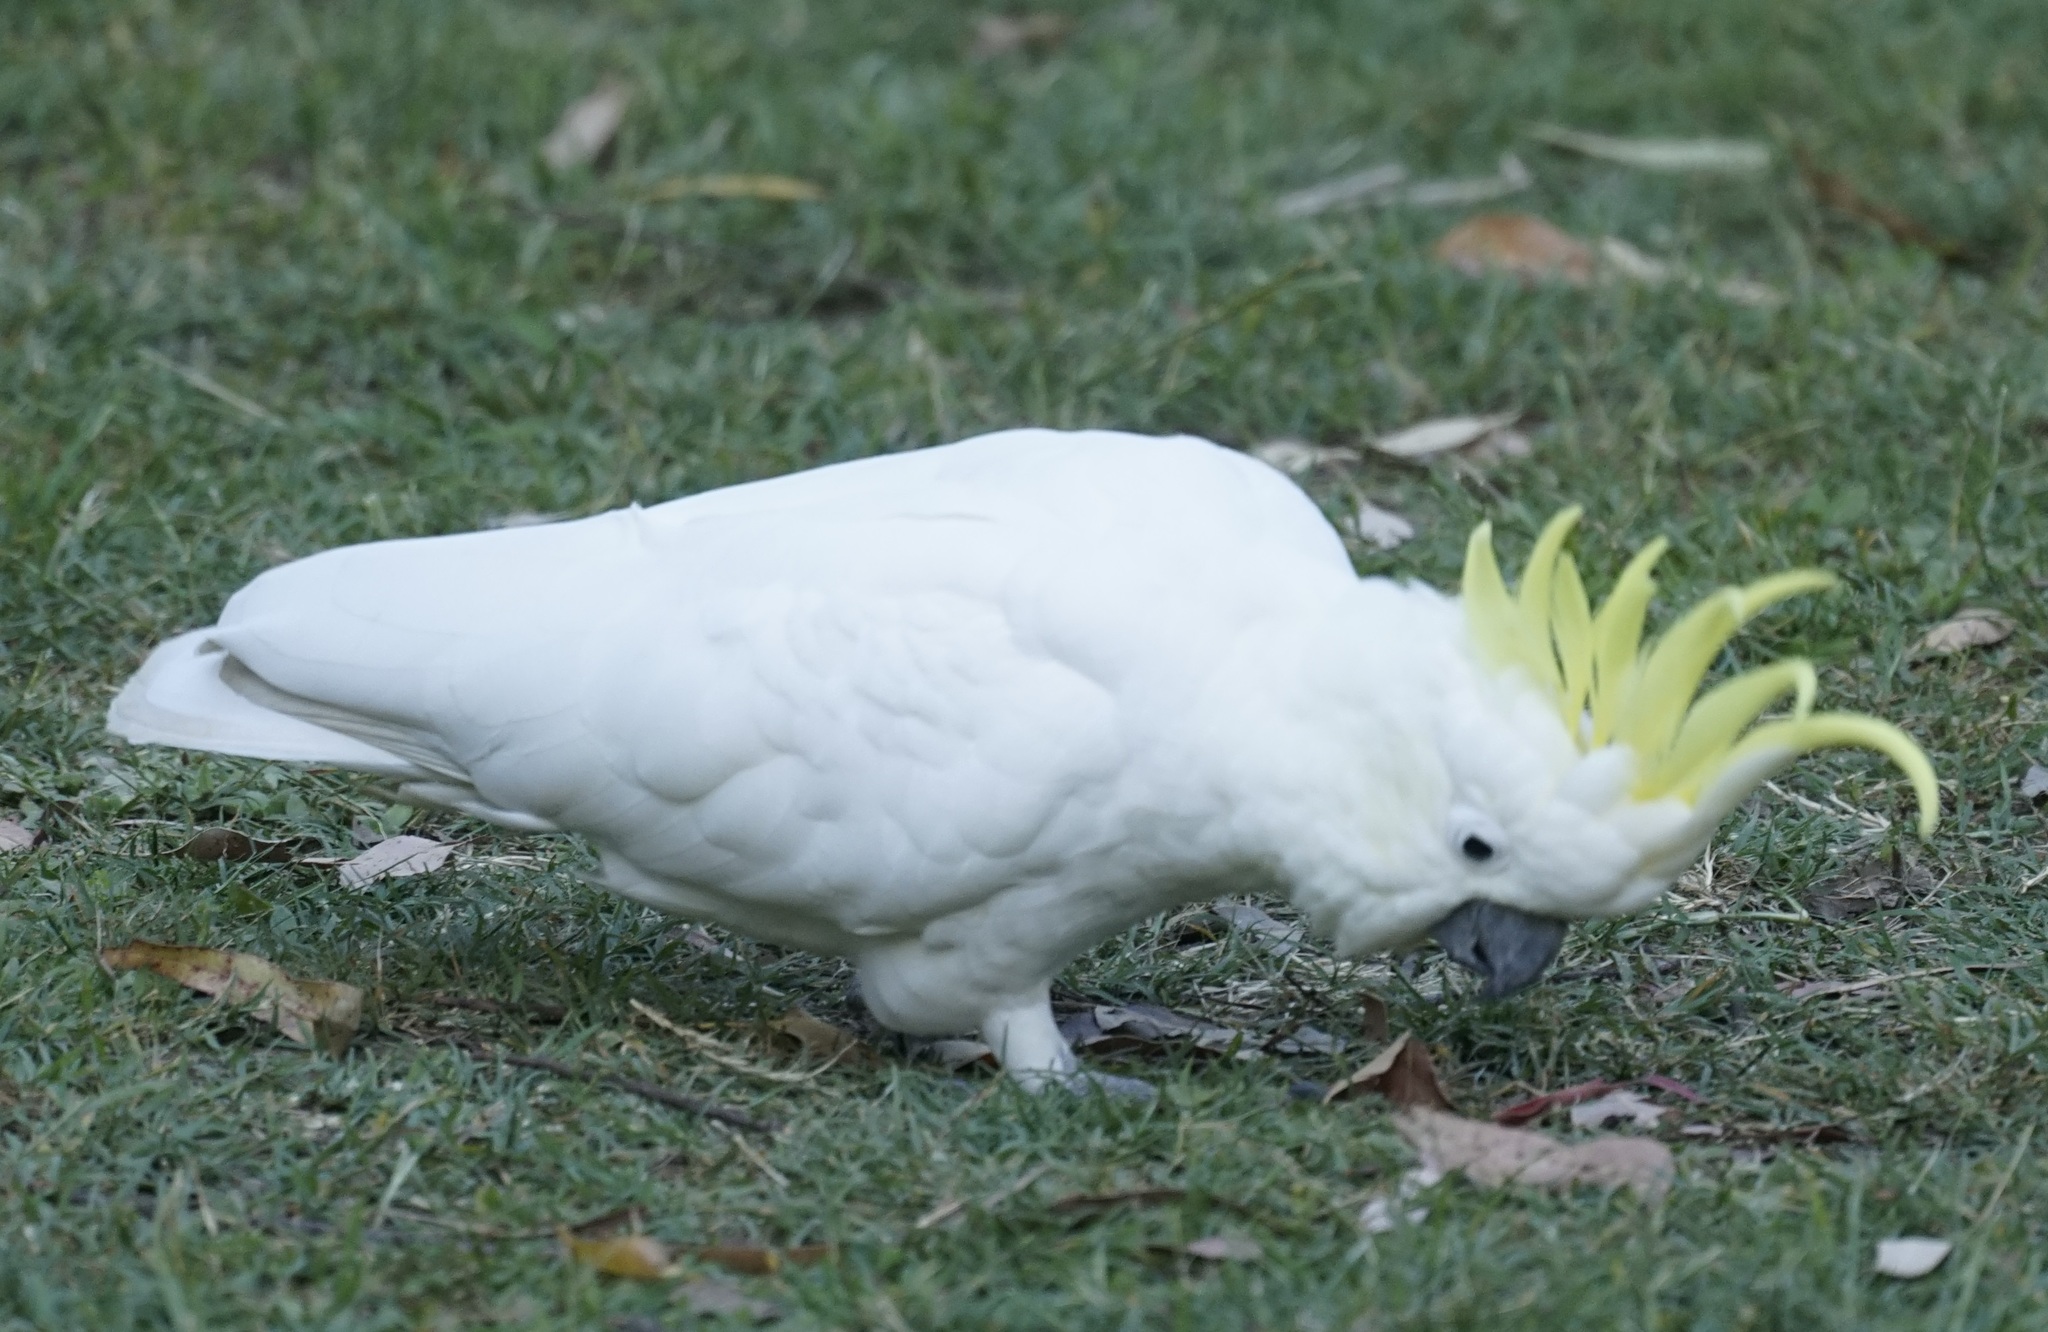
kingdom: Animalia
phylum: Chordata
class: Aves
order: Psittaciformes
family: Psittacidae
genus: Cacatua
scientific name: Cacatua galerita
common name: Sulphur-crested cockatoo
